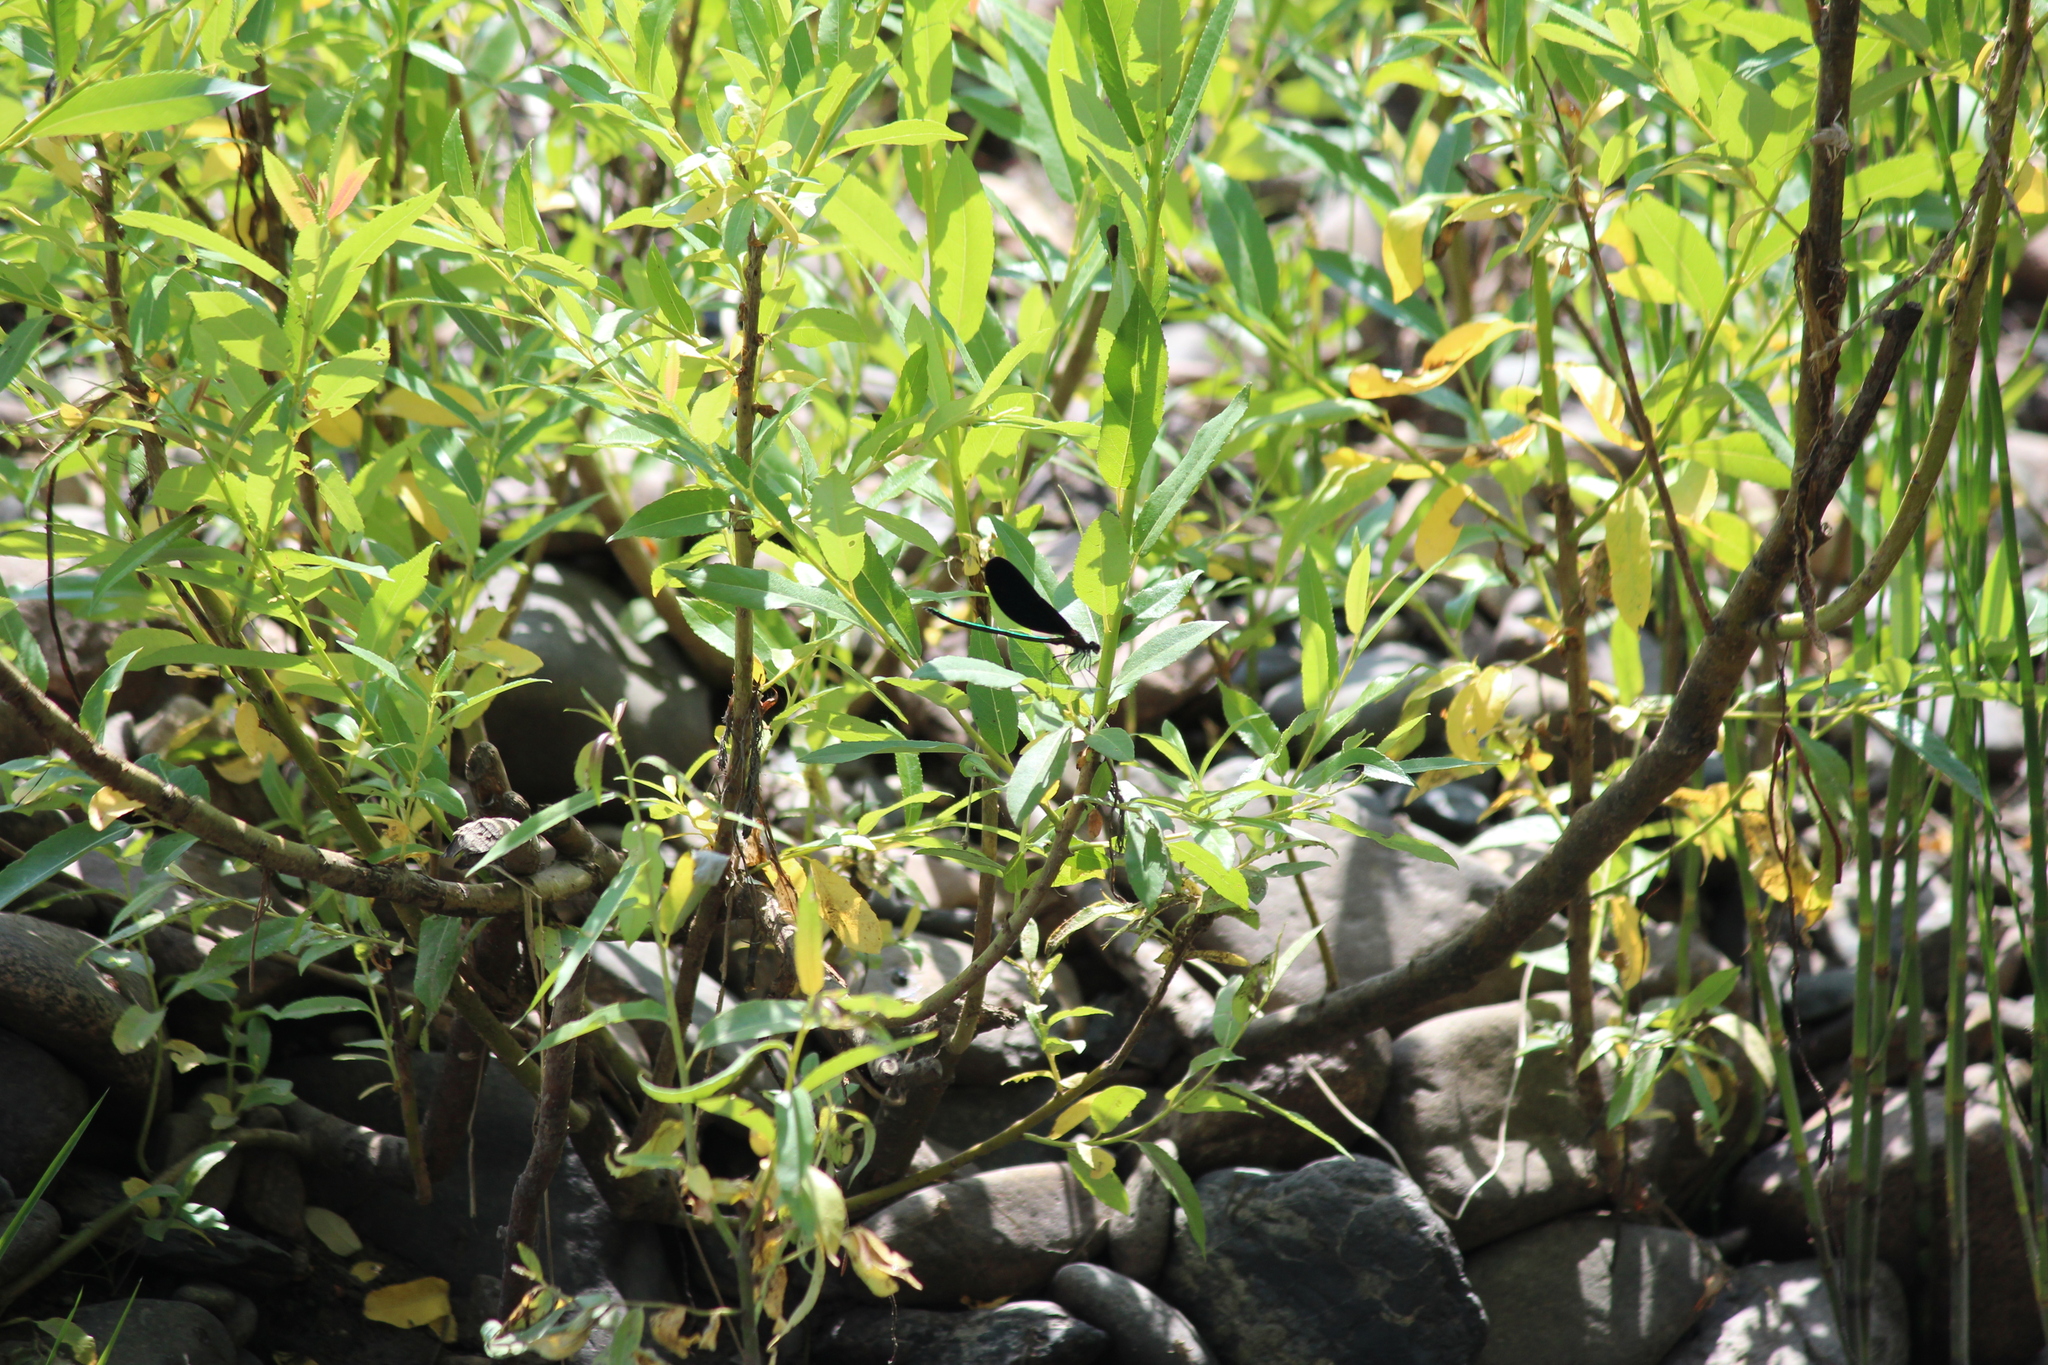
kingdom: Animalia
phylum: Arthropoda
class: Insecta
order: Odonata
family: Calopterygidae
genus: Calopteryx
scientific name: Calopteryx japonica
